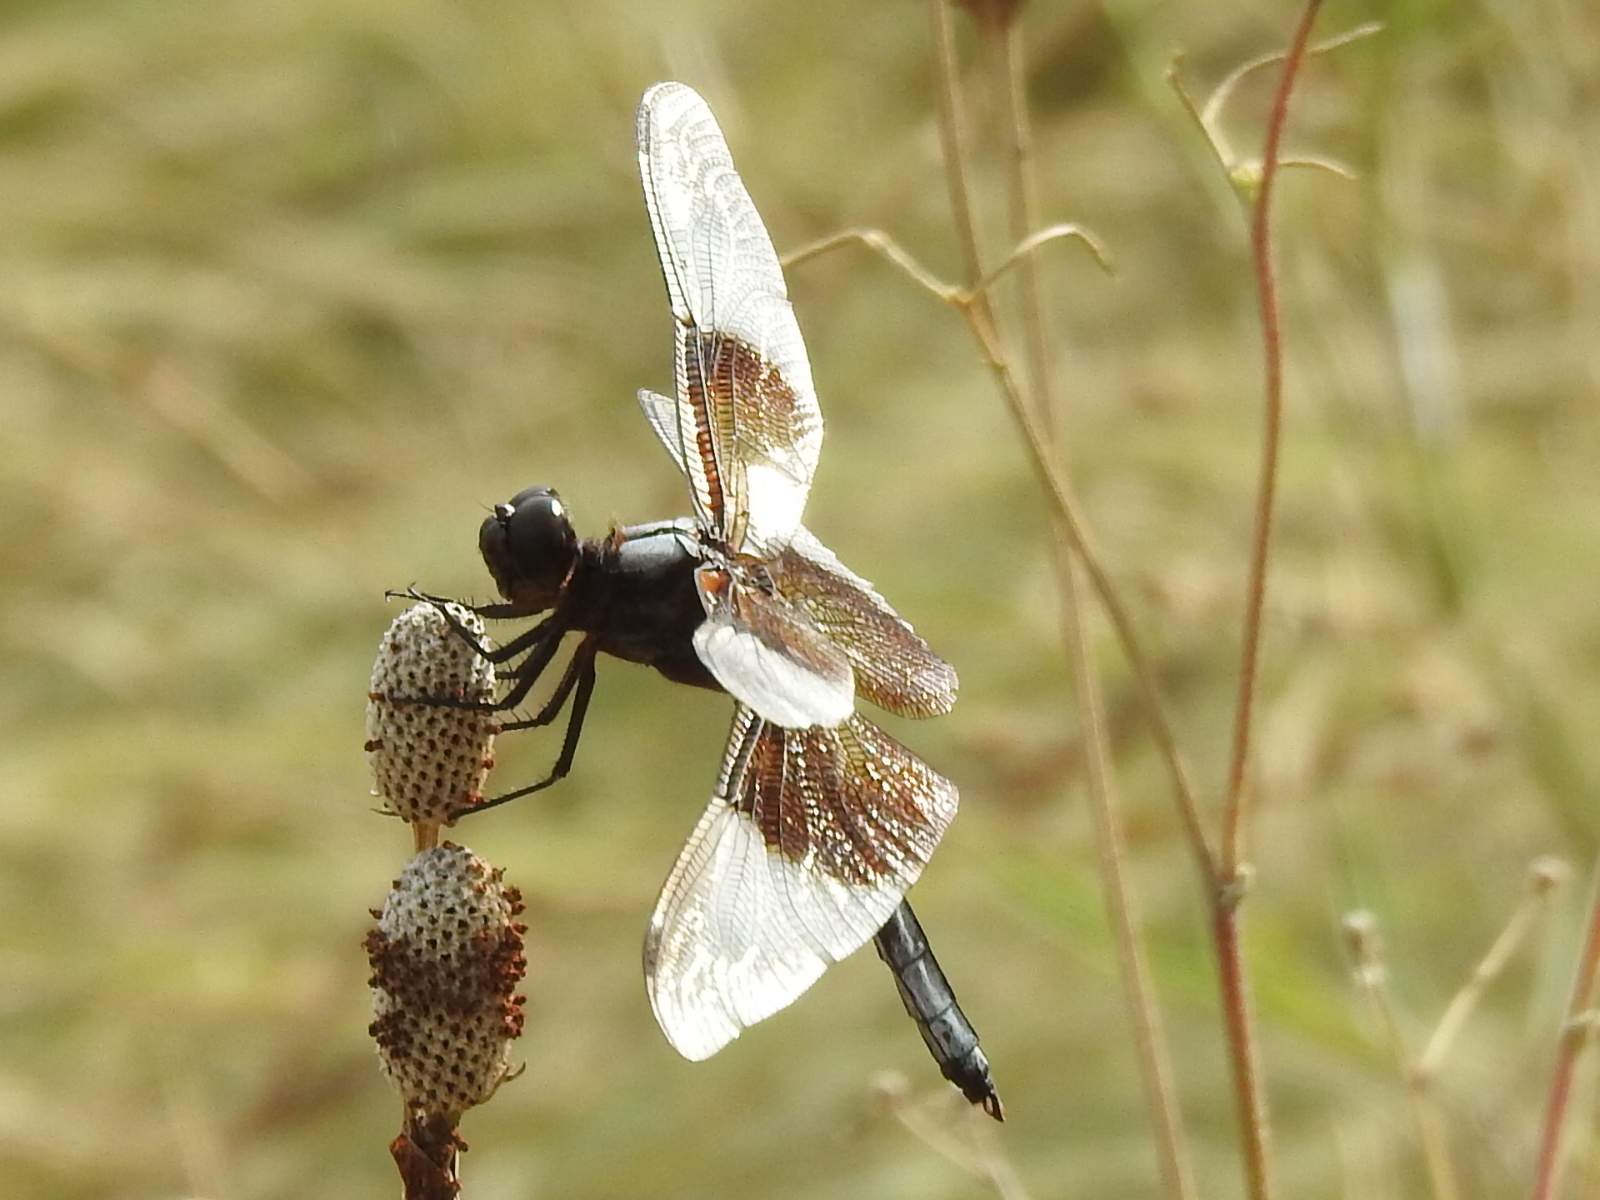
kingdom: Animalia
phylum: Arthropoda
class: Insecta
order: Odonata
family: Libellulidae
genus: Libellula
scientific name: Libellula luctuosa
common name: Widow skimmer
